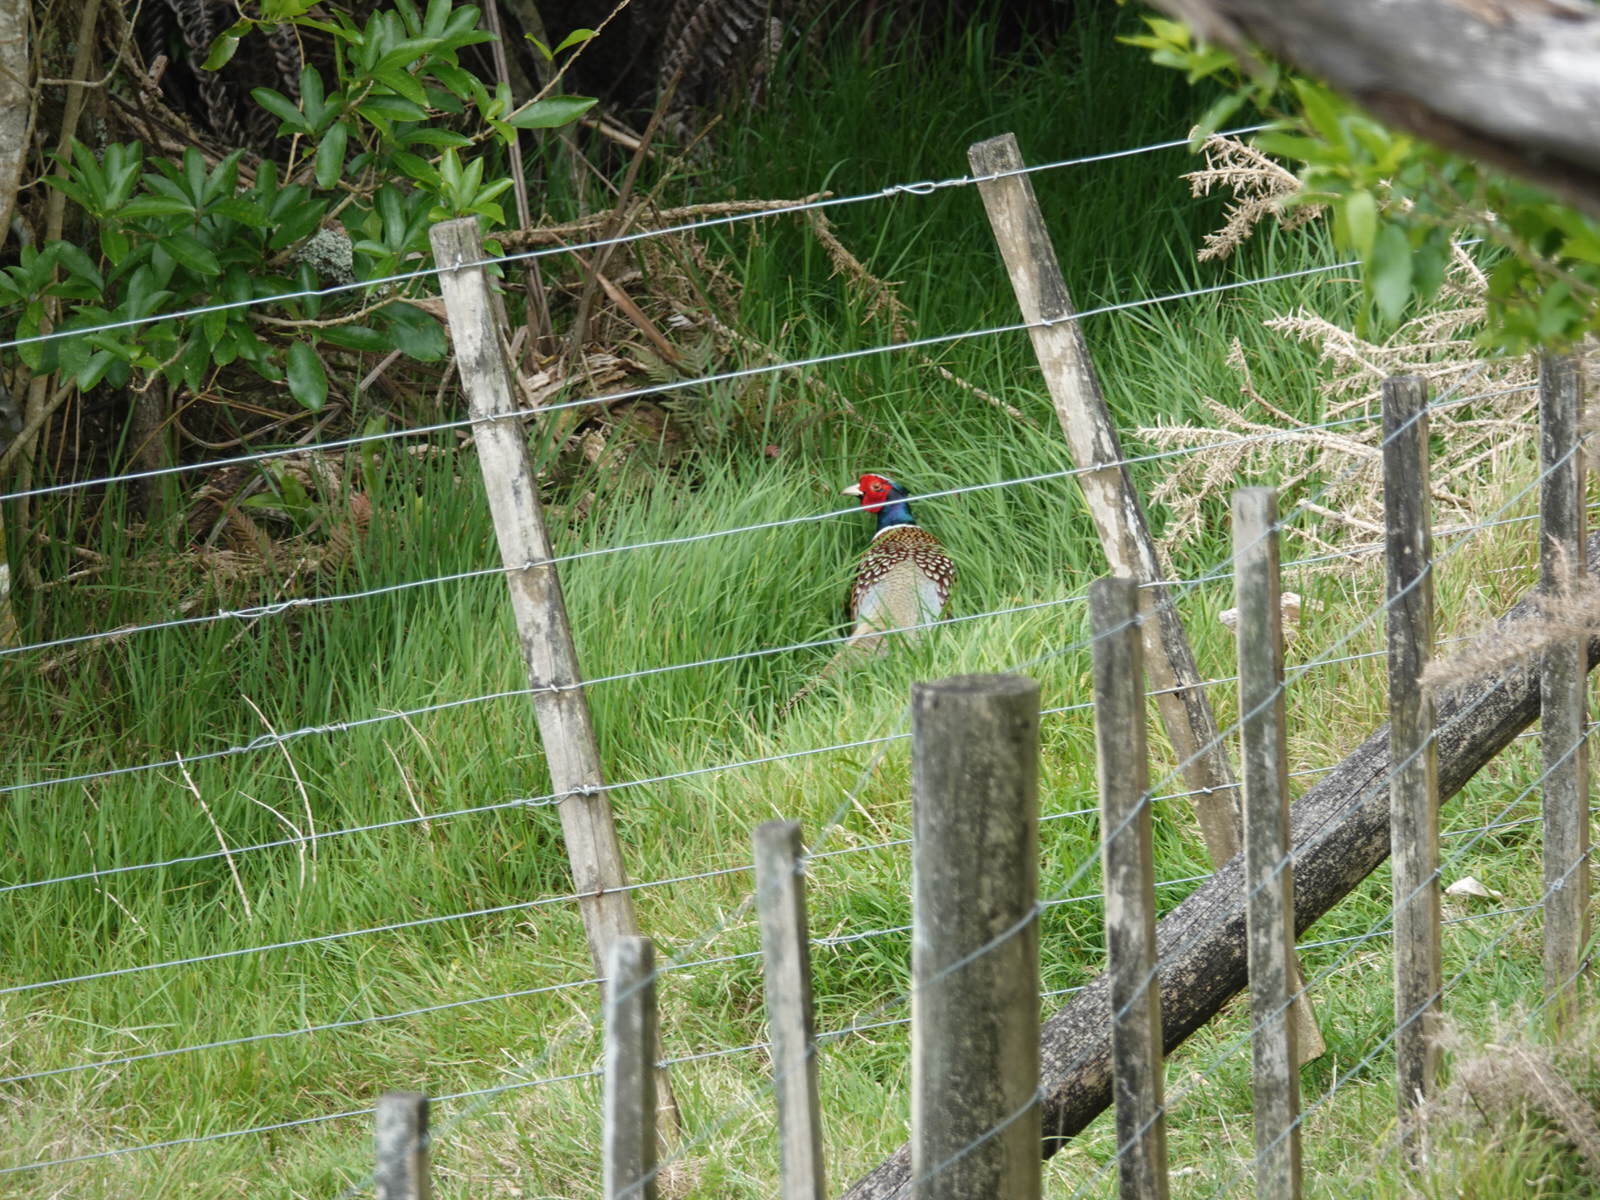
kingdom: Animalia
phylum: Chordata
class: Aves
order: Galliformes
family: Phasianidae
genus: Phasianus
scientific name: Phasianus colchicus
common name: Common pheasant
